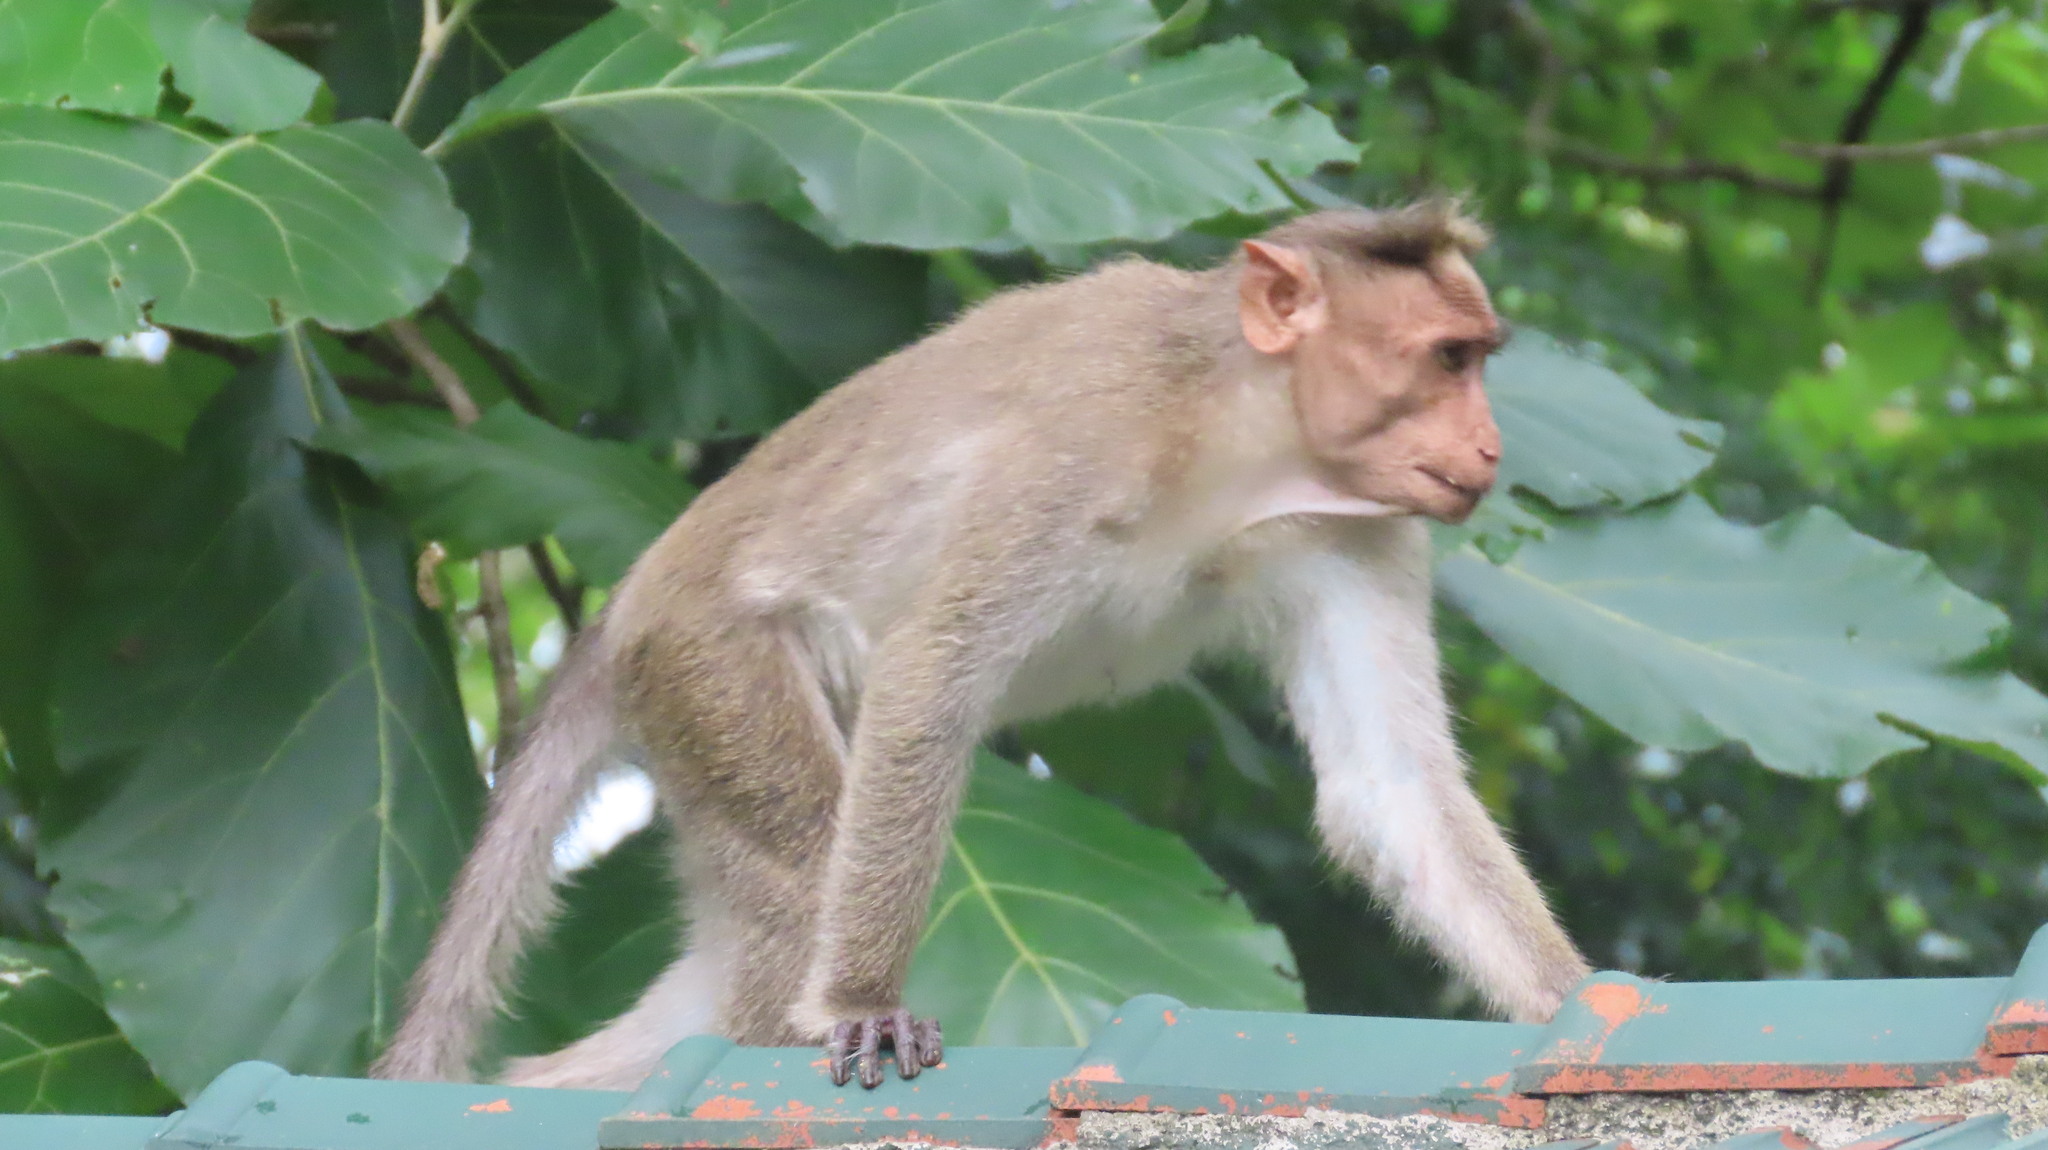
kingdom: Animalia
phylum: Chordata
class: Mammalia
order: Primates
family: Cercopithecidae
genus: Macaca
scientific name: Macaca radiata
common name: Bonnet macaque
